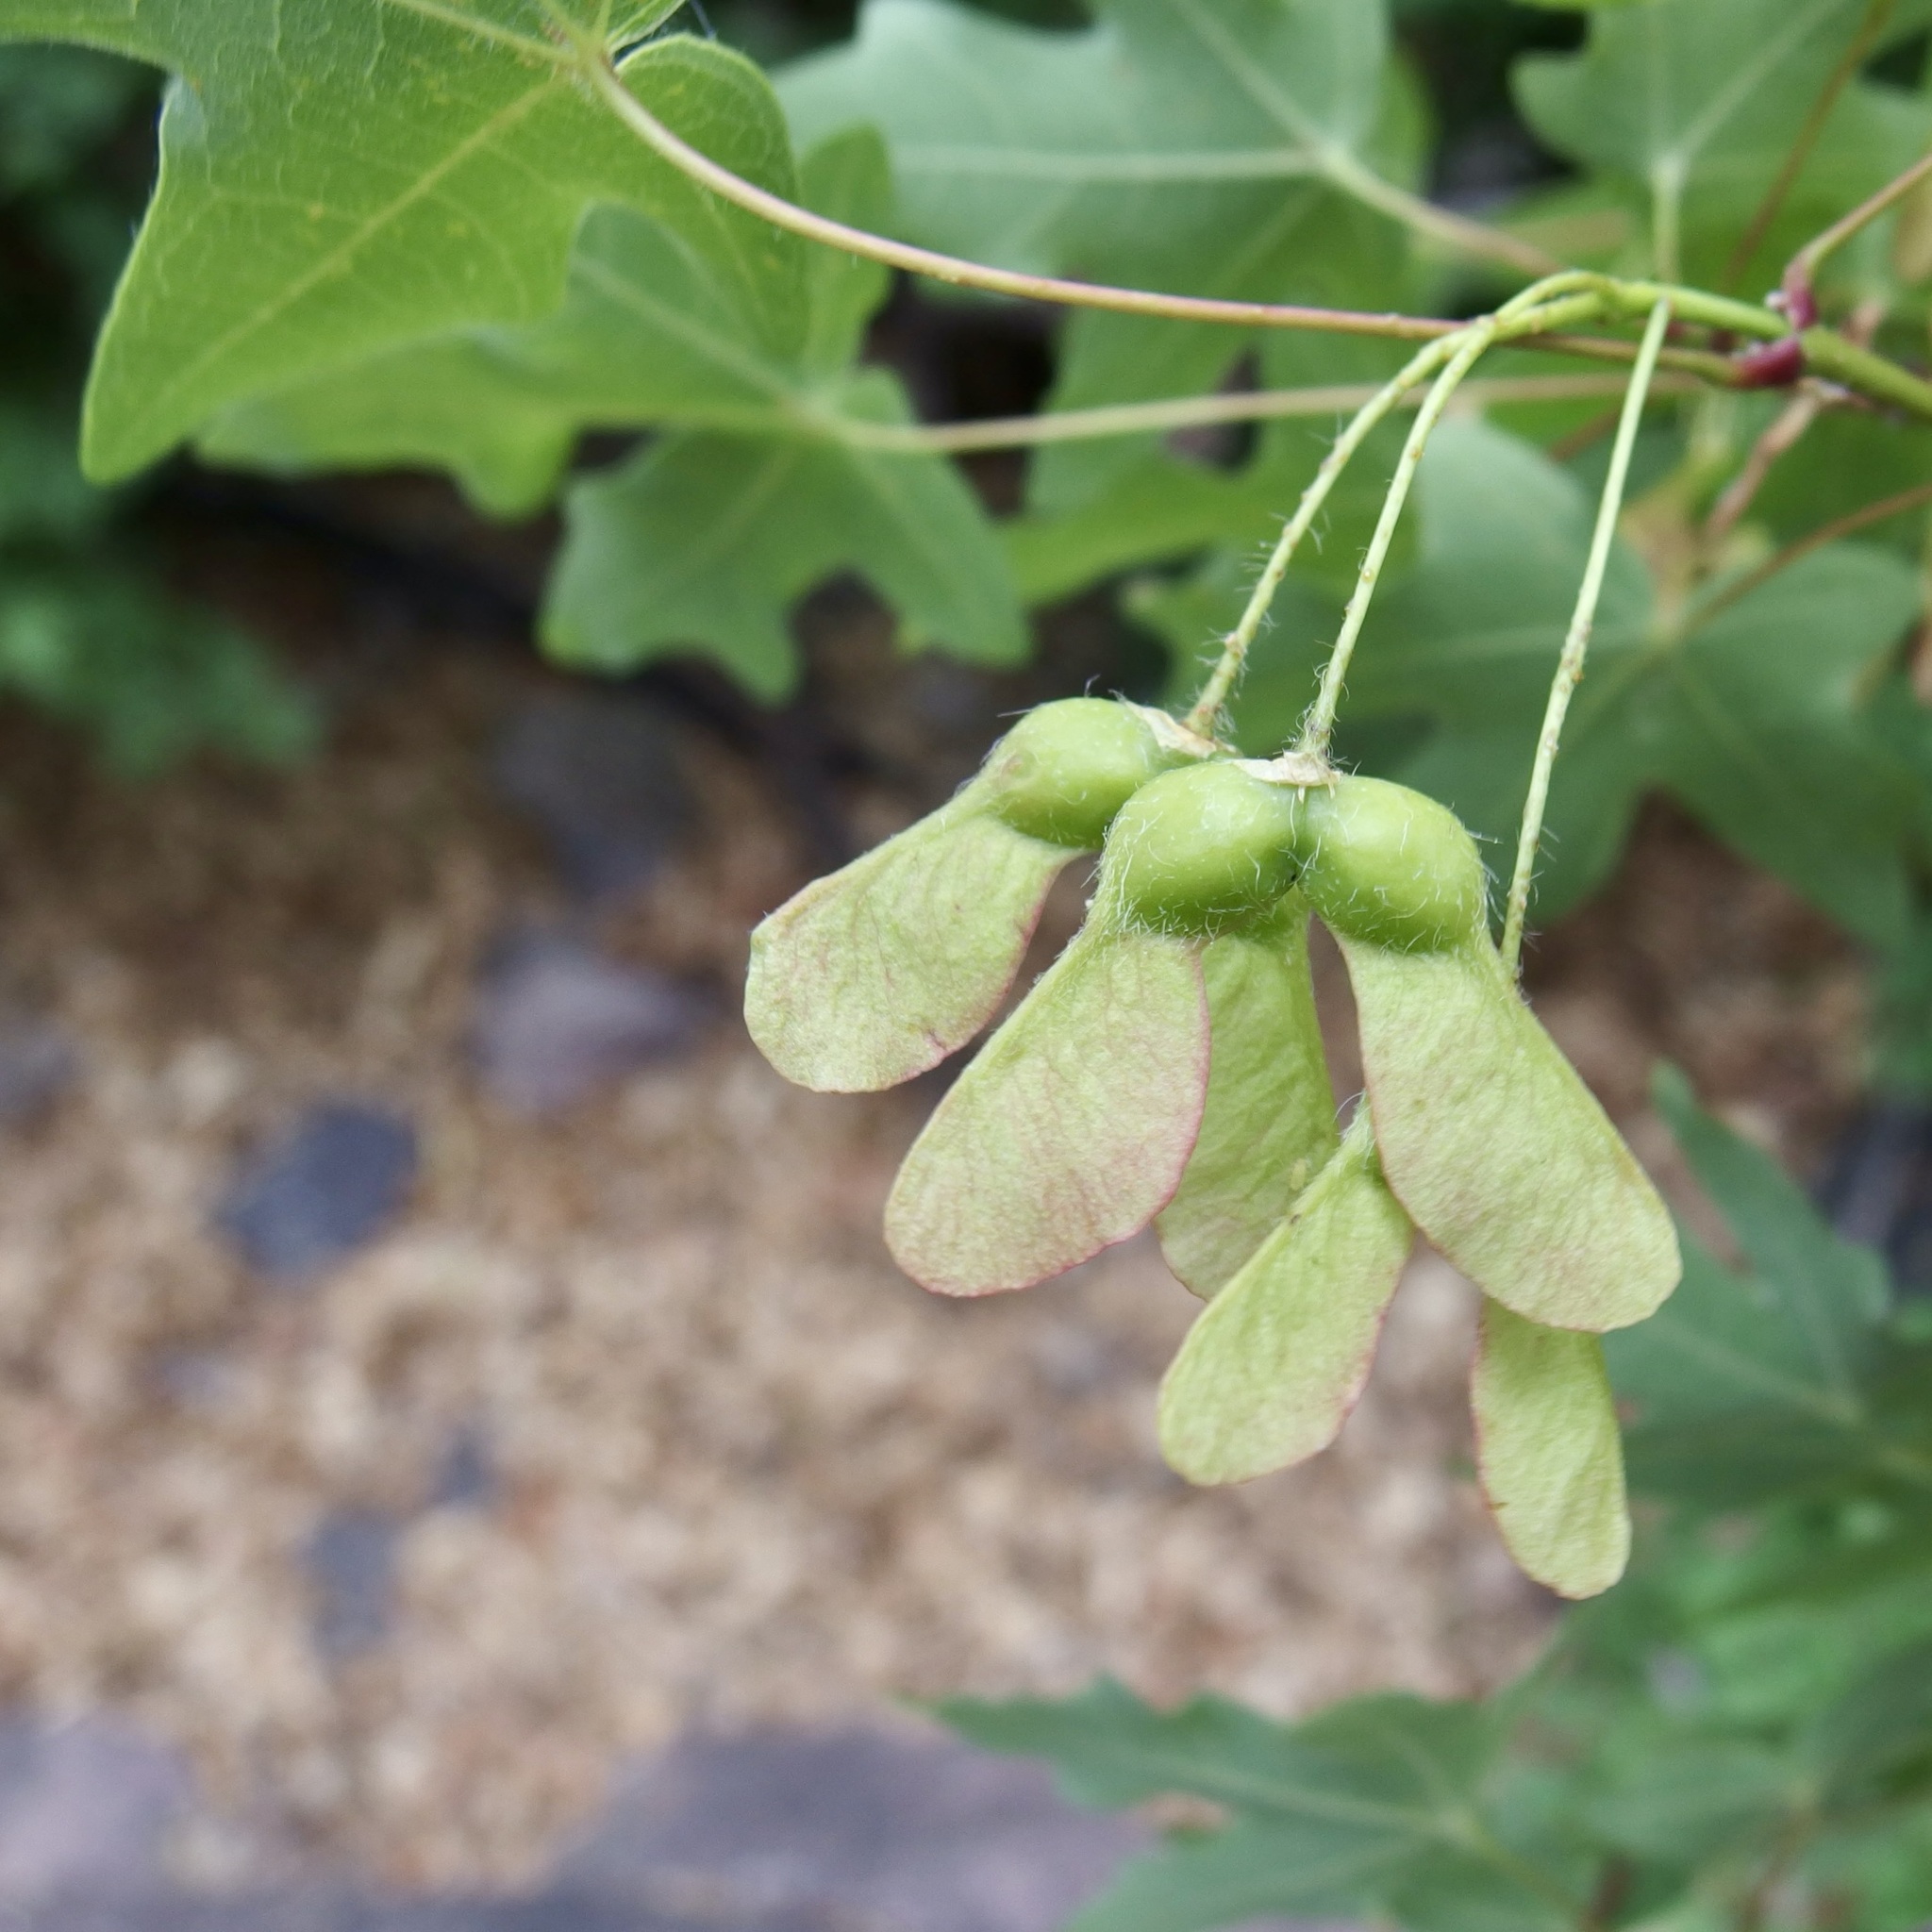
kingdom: Plantae
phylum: Tracheophyta
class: Magnoliopsida
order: Sapindales
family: Sapindaceae
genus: Acer
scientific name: Acer grandidentatum
